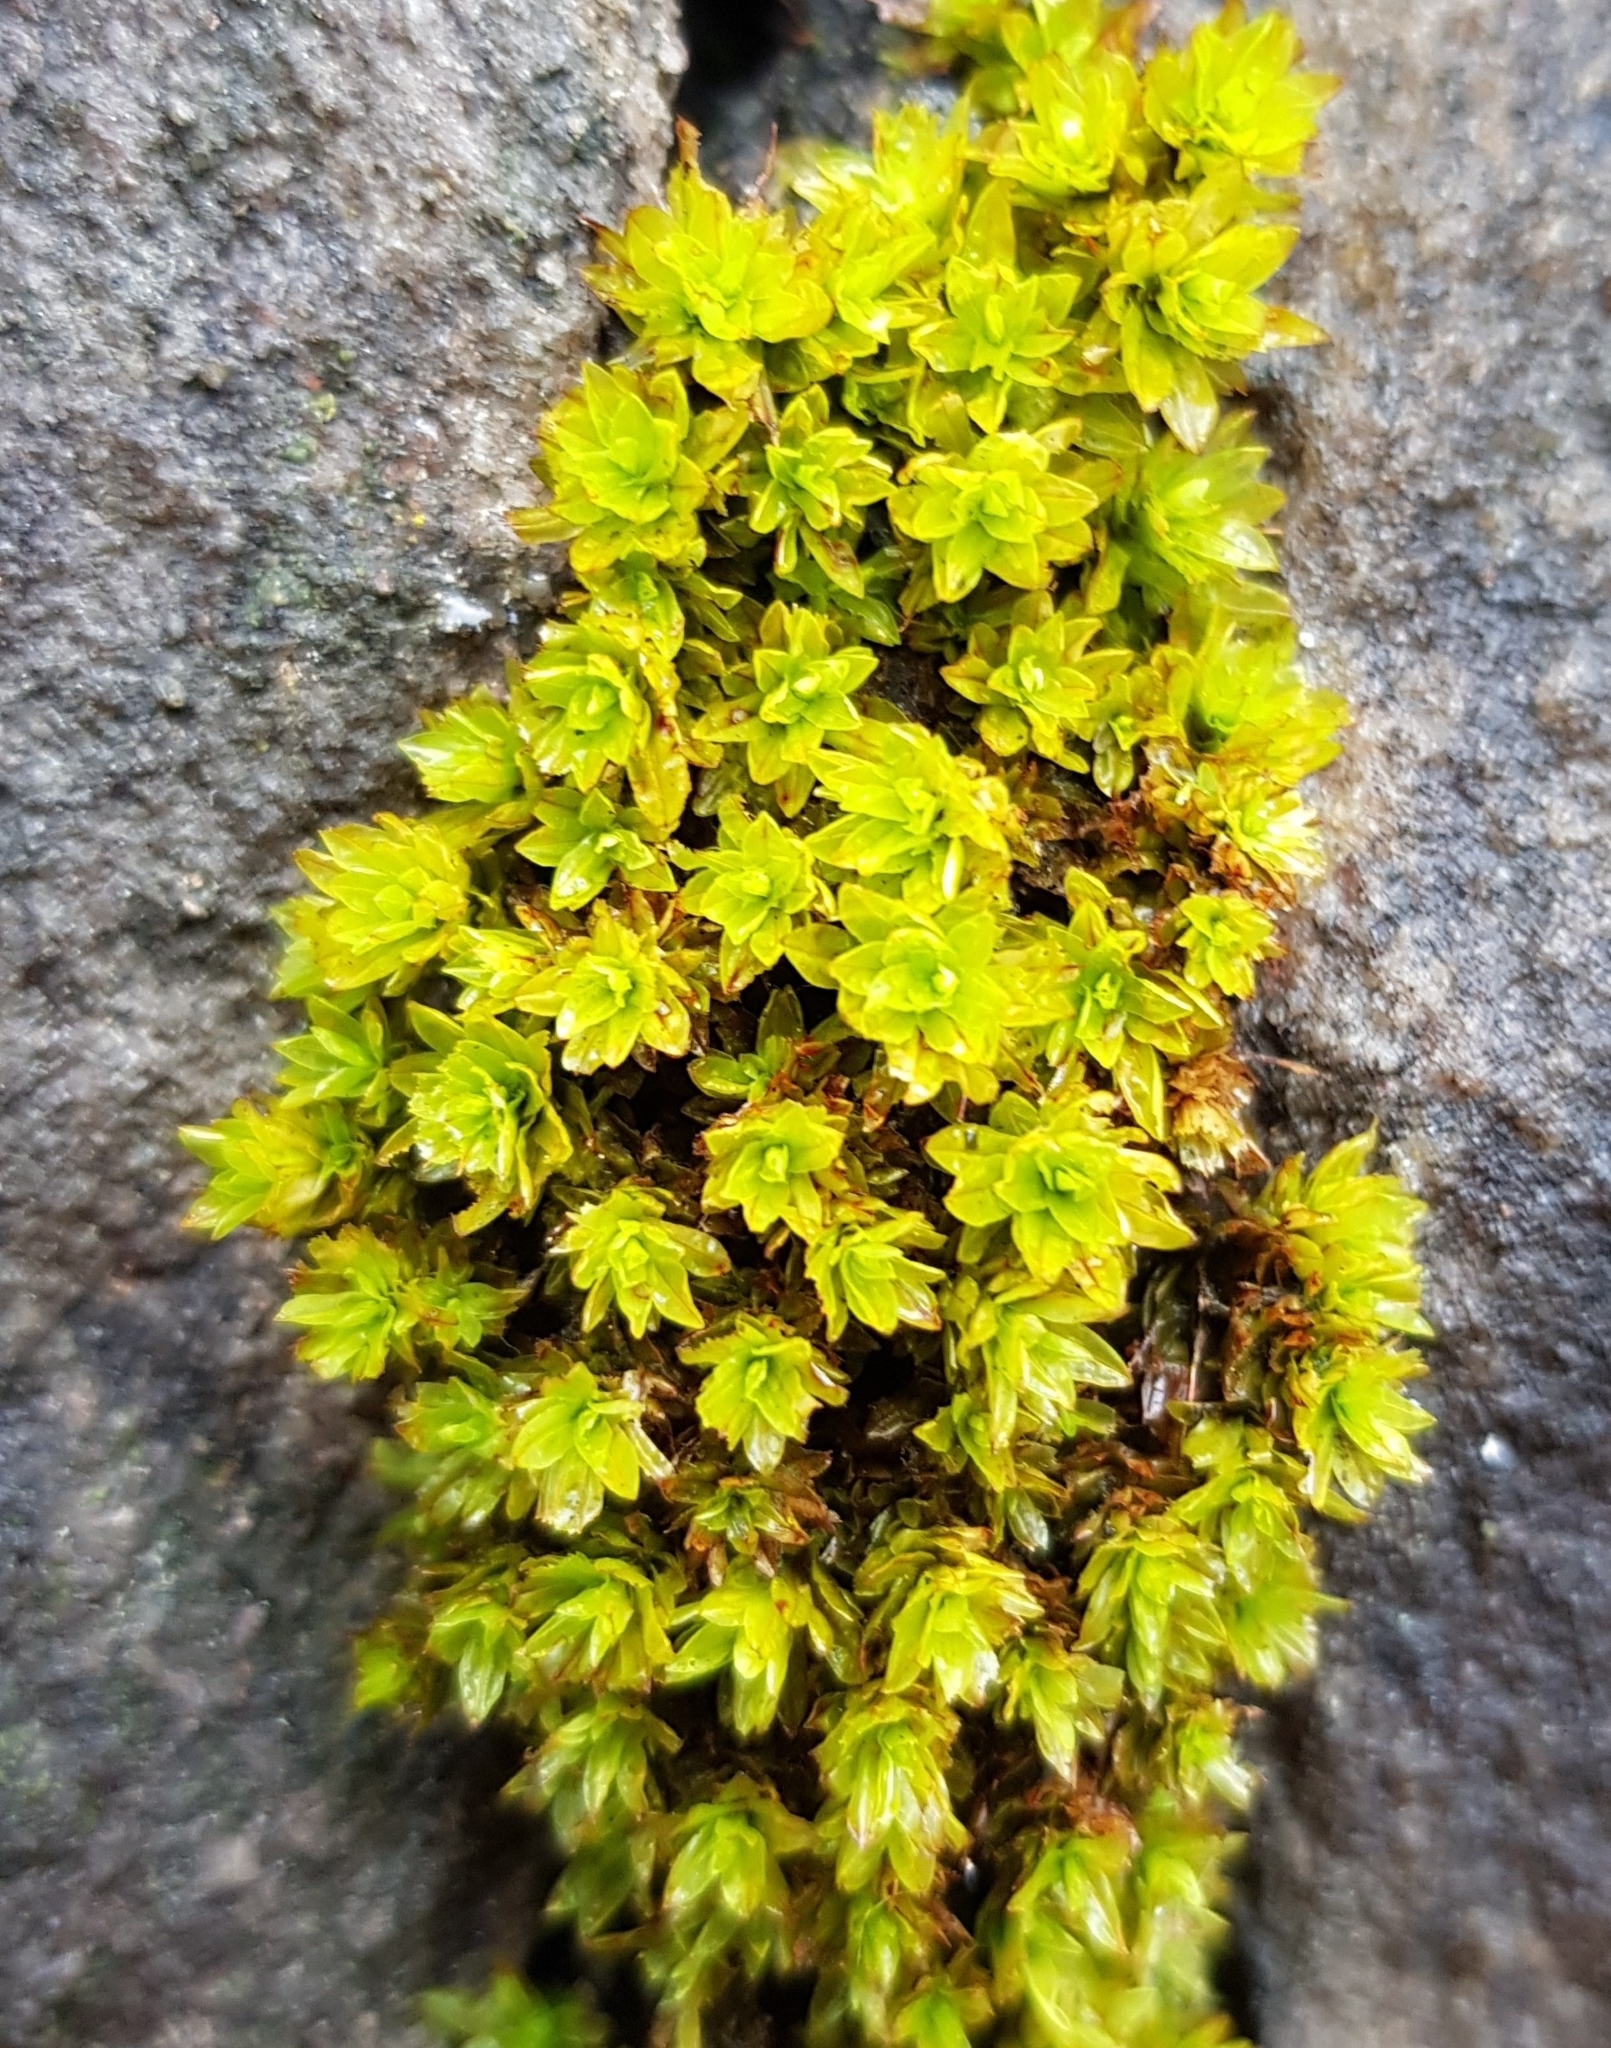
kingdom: Plantae
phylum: Bryophyta
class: Bryopsida
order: Encalyptales
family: Encalyptaceae
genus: Encalypta
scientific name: Encalypta streptocarpa
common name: Spiral extinguisher-moss
